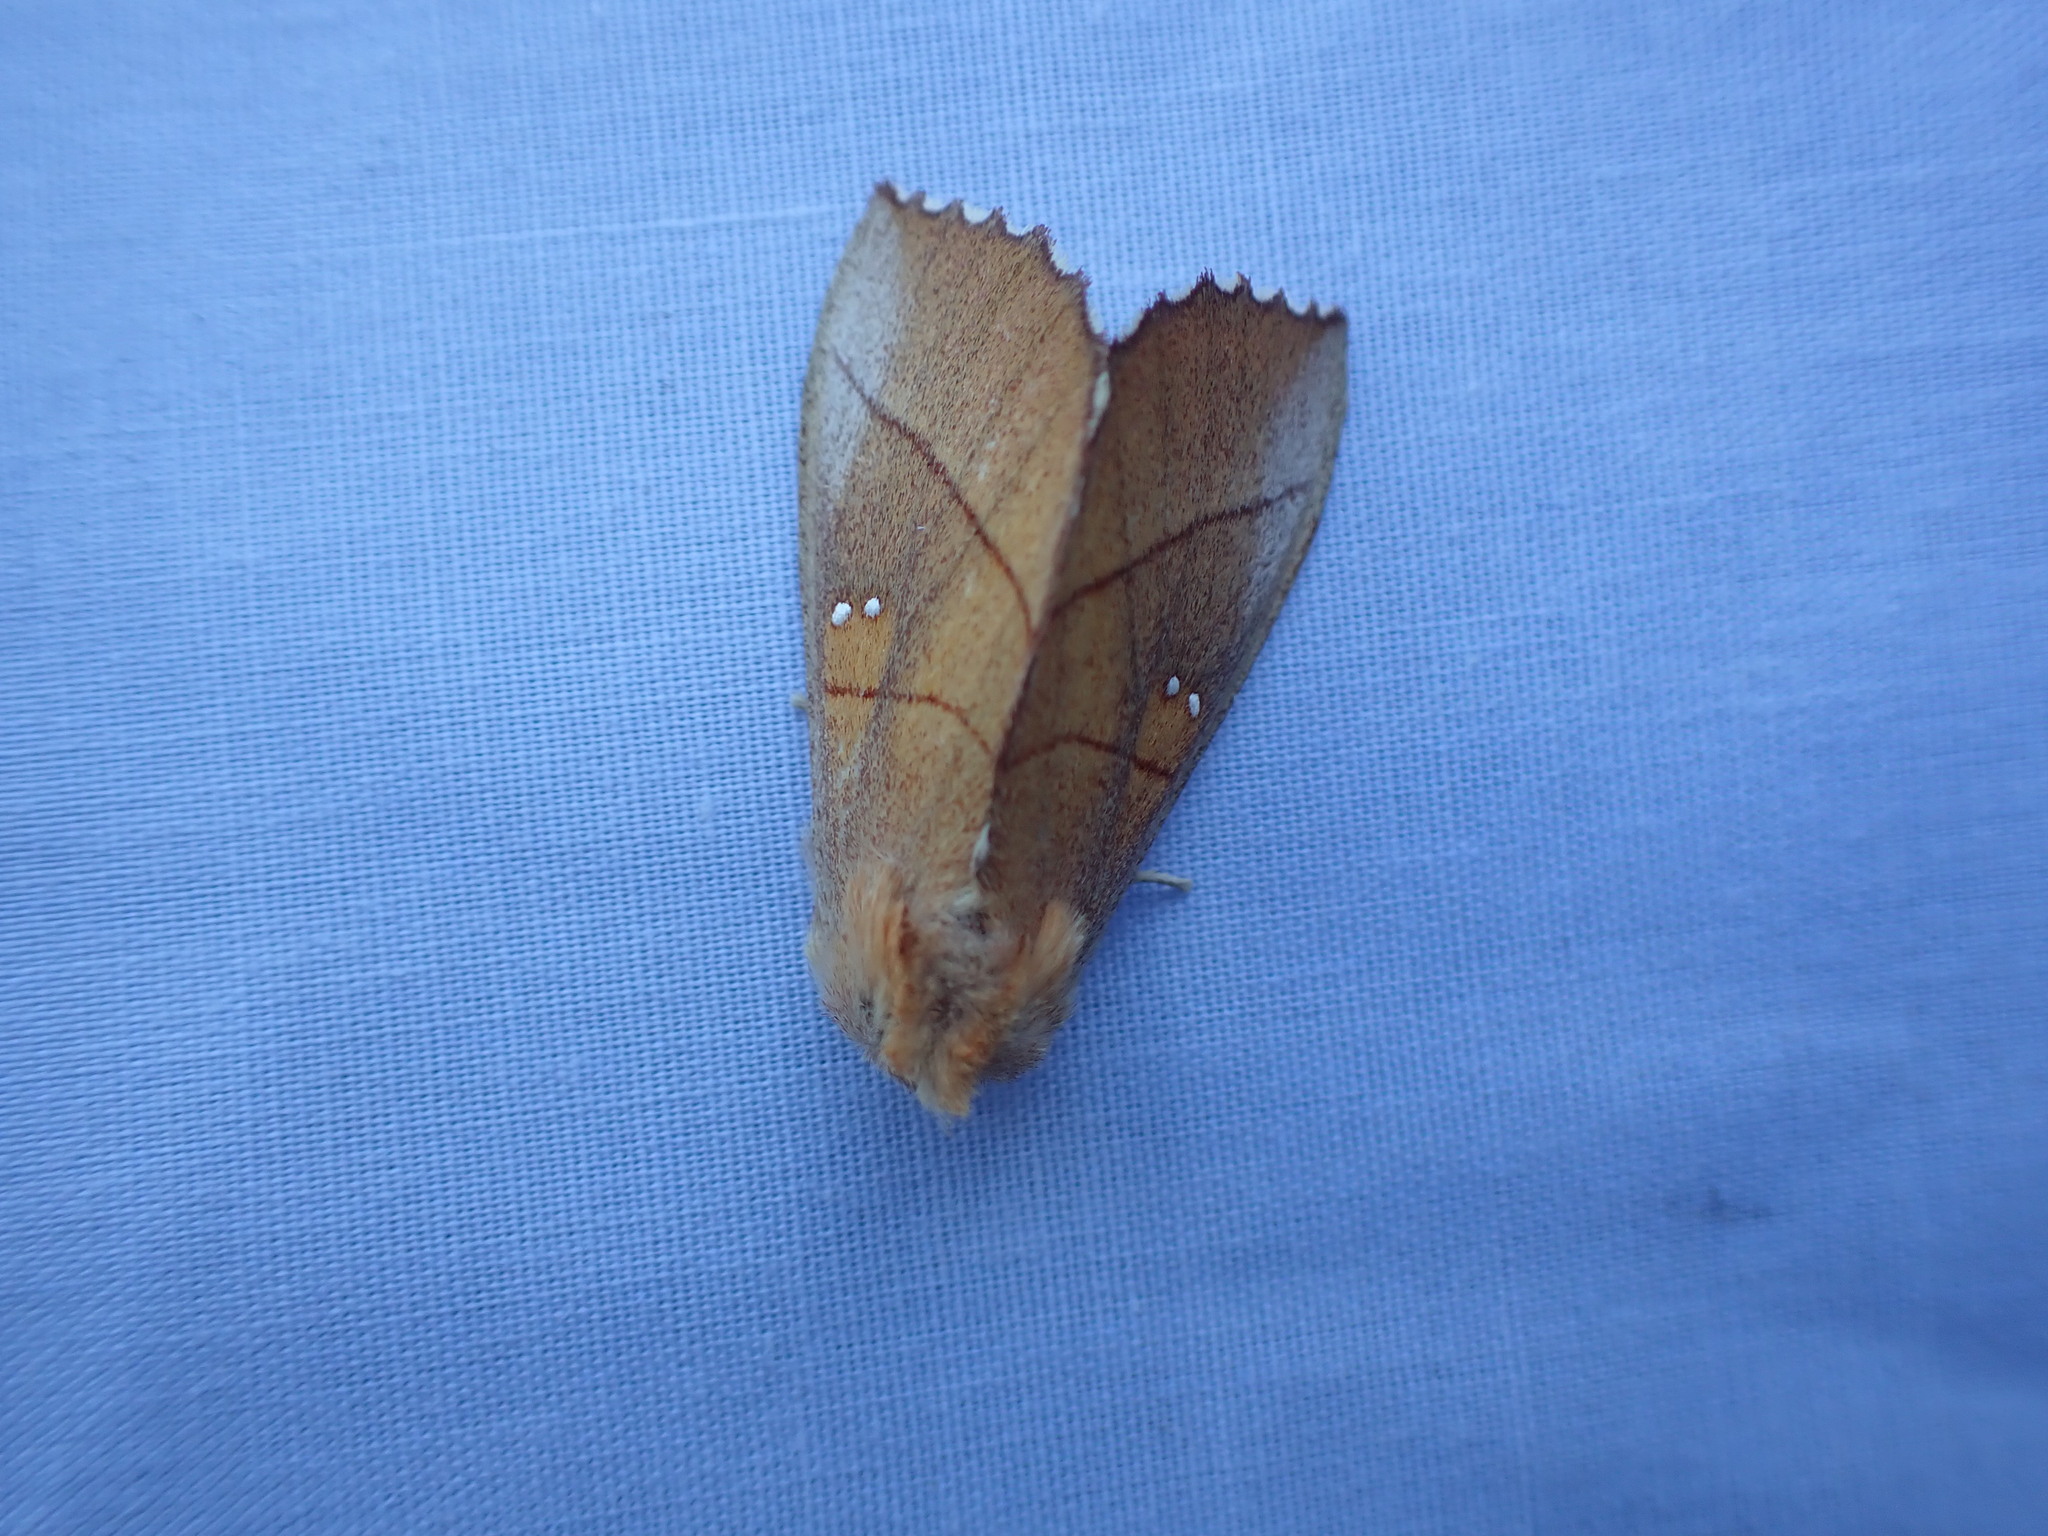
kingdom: Animalia
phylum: Arthropoda
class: Insecta
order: Lepidoptera
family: Notodontidae
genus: Nadata
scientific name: Nadata gibbosa
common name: White-dotted prominent
